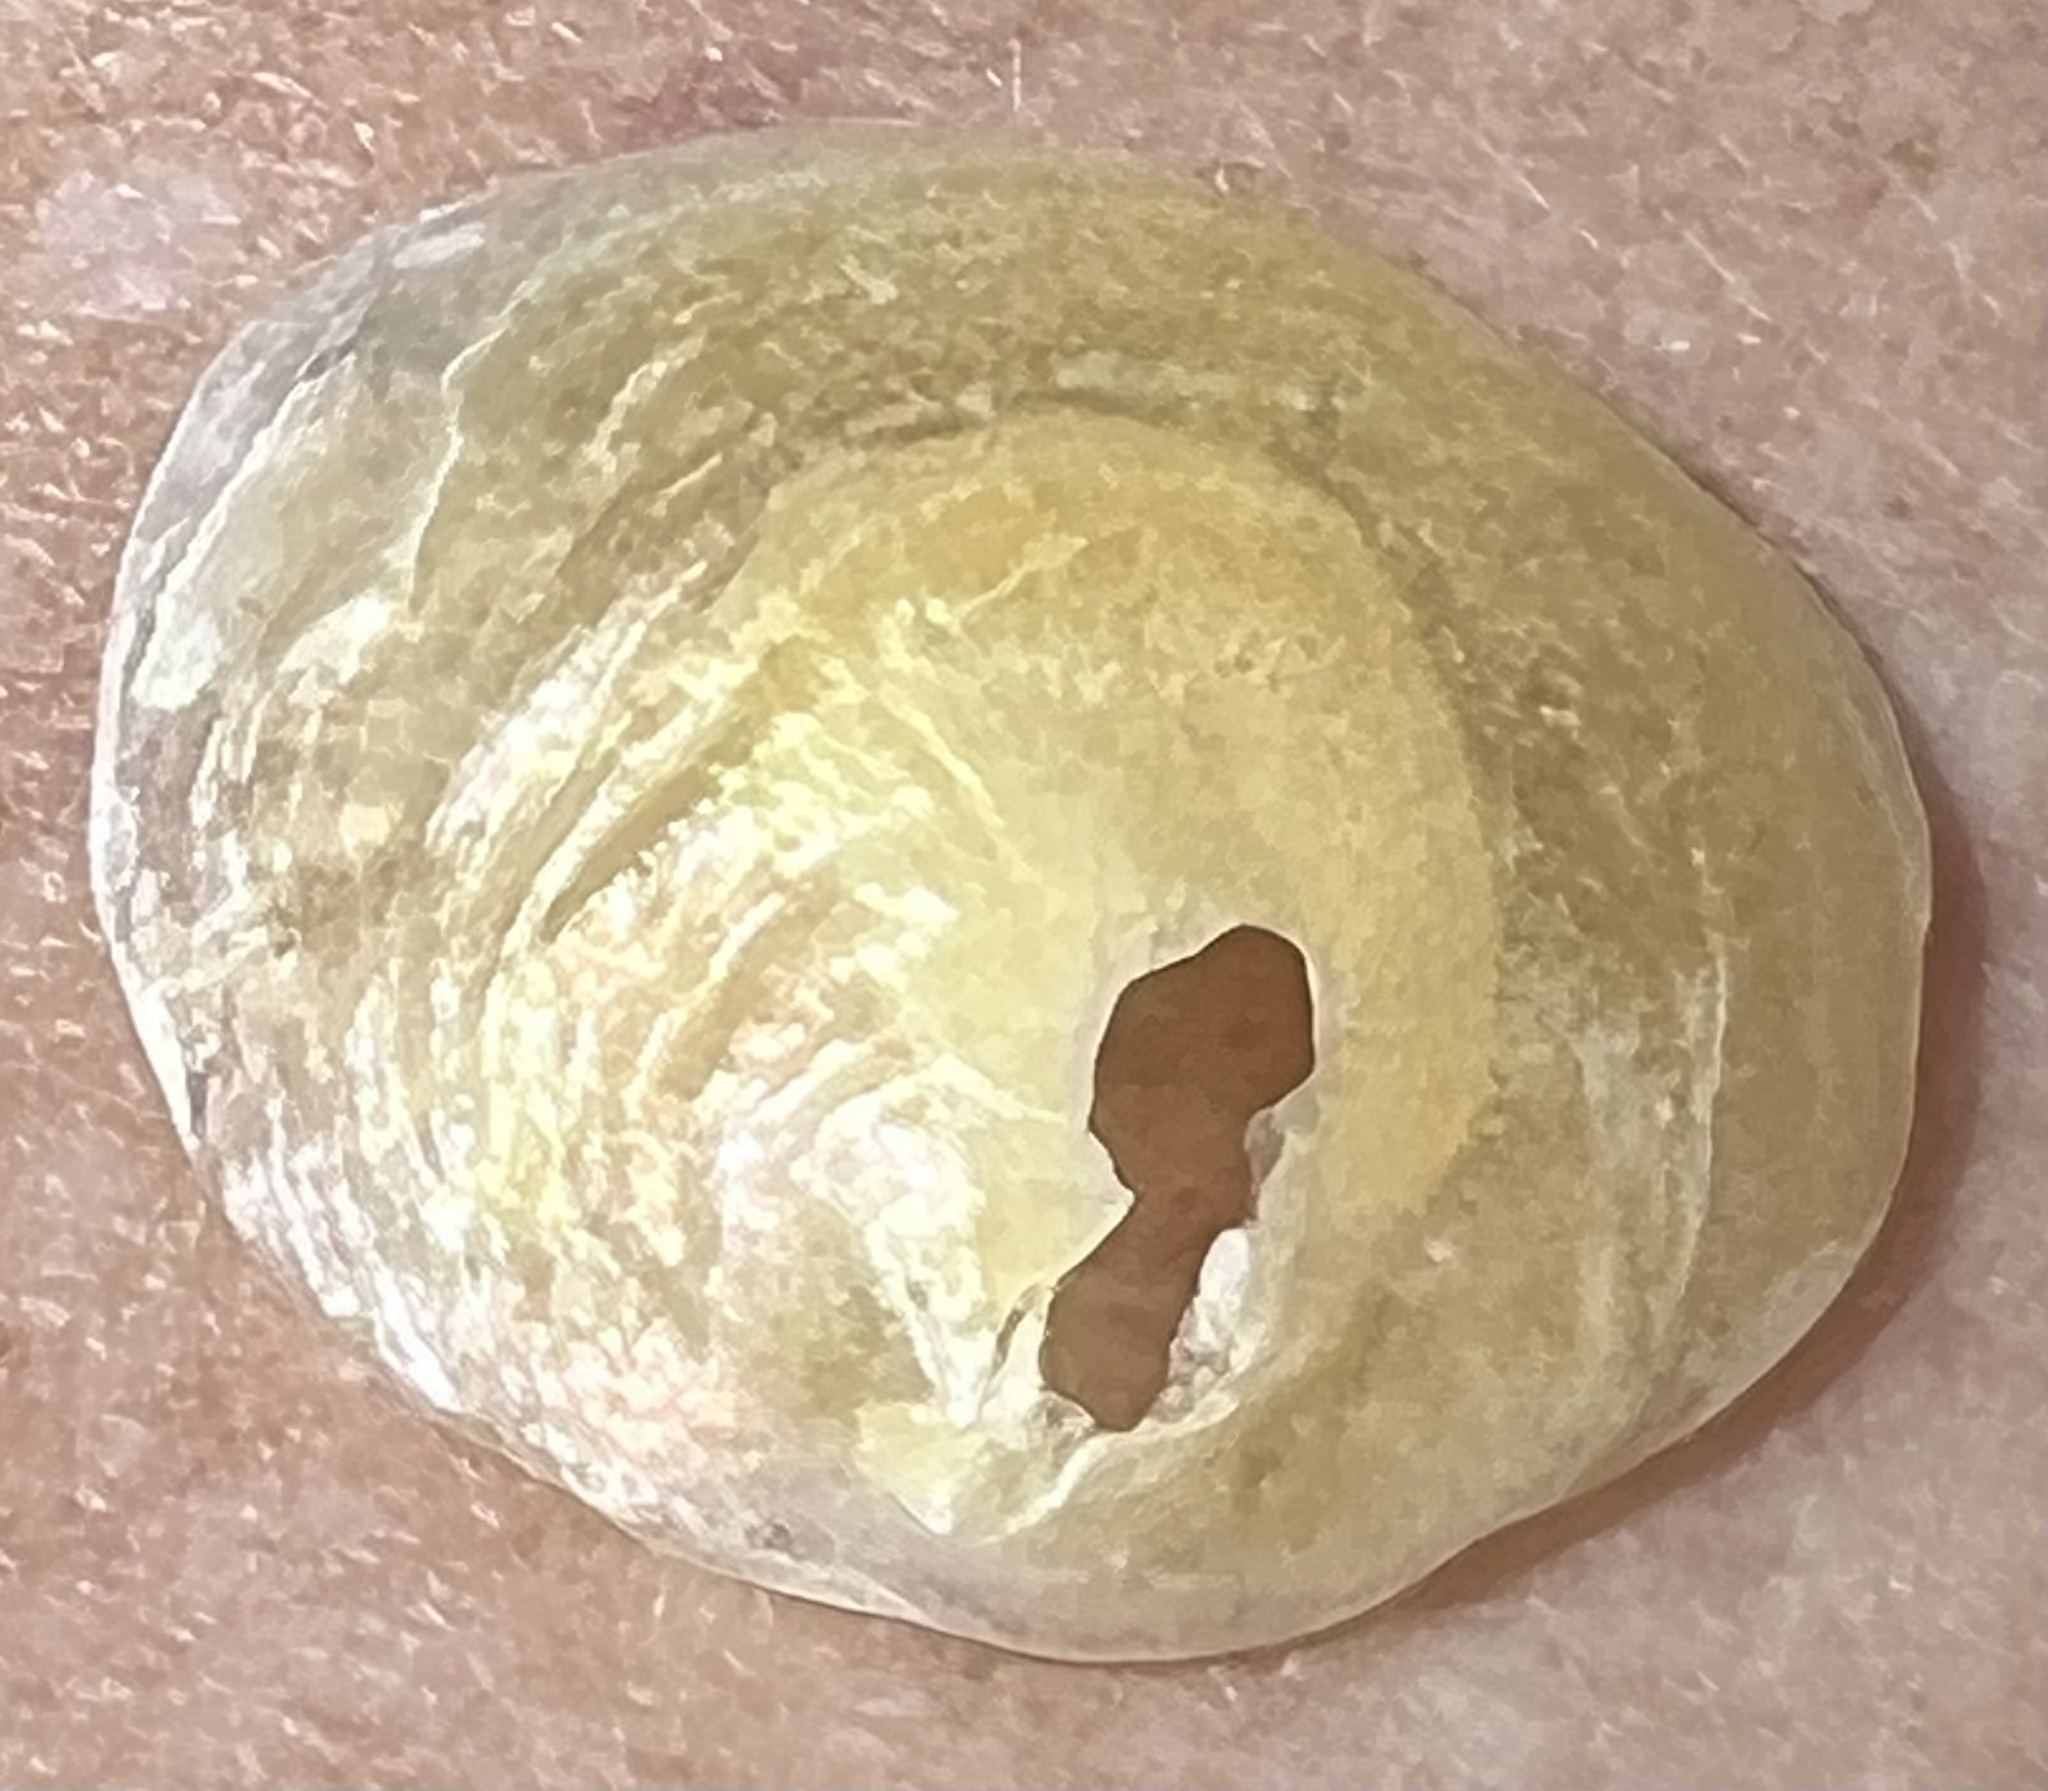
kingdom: Animalia
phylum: Mollusca
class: Bivalvia
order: Pectinida
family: Anomiidae
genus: Anomia
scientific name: Anomia simplex
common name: Common jingle shell
